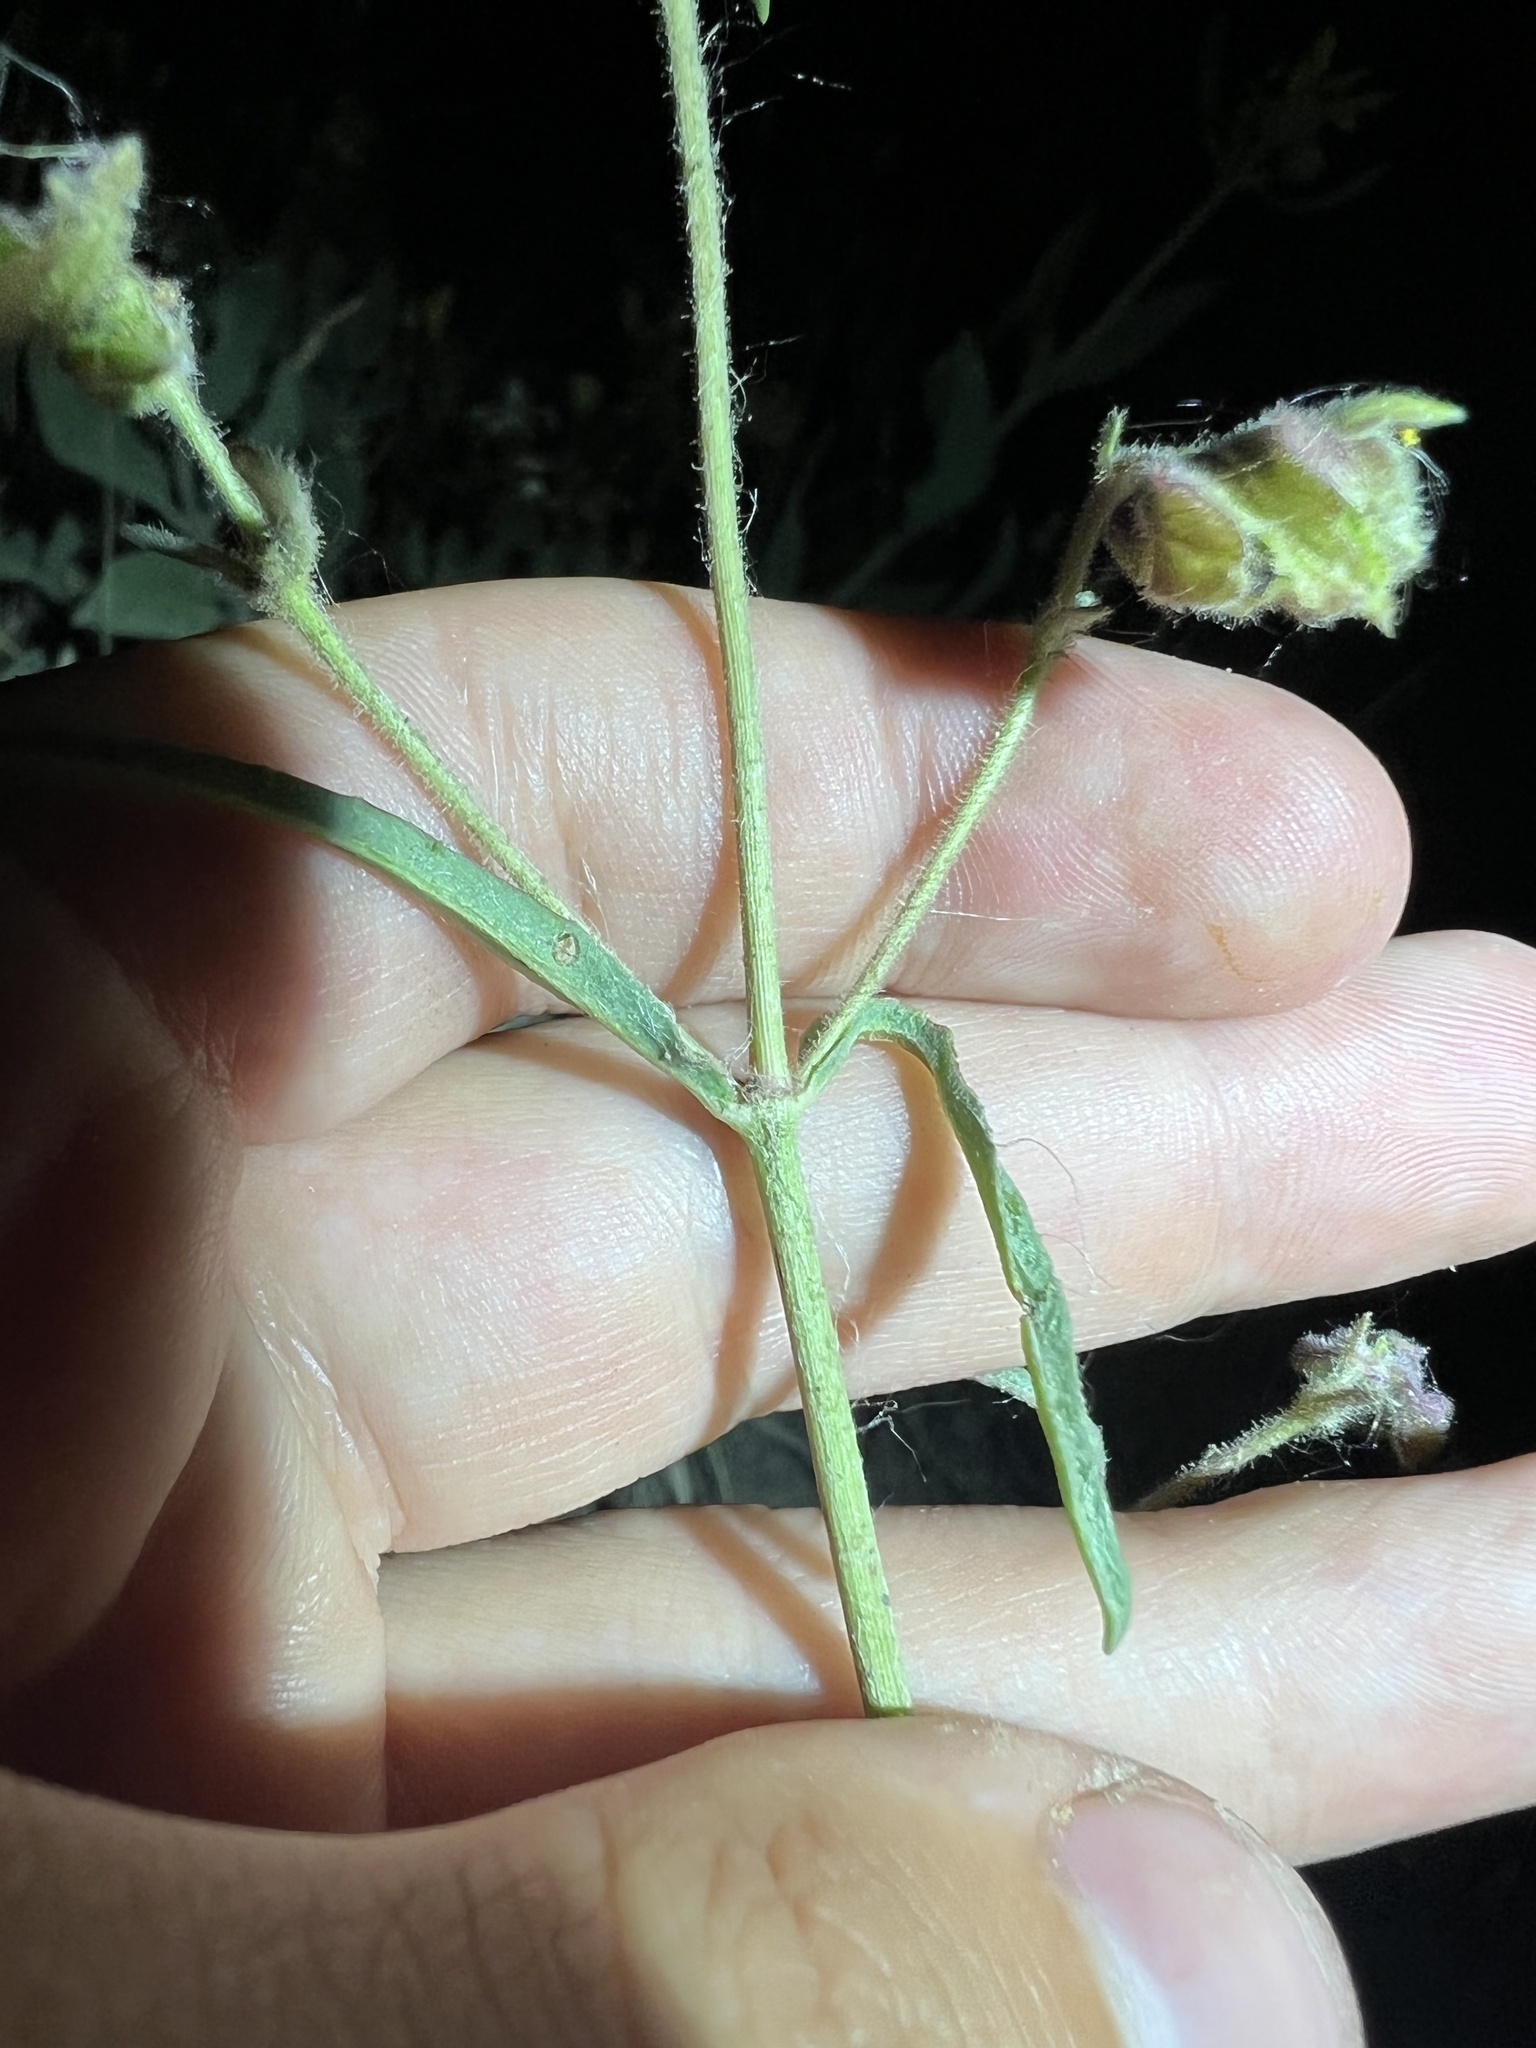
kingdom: Plantae
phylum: Tracheophyta
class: Magnoliopsida
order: Caryophyllales
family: Nyctaginaceae
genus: Mirabilis
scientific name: Mirabilis linearis
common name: Linear-leaved four-o'clock
